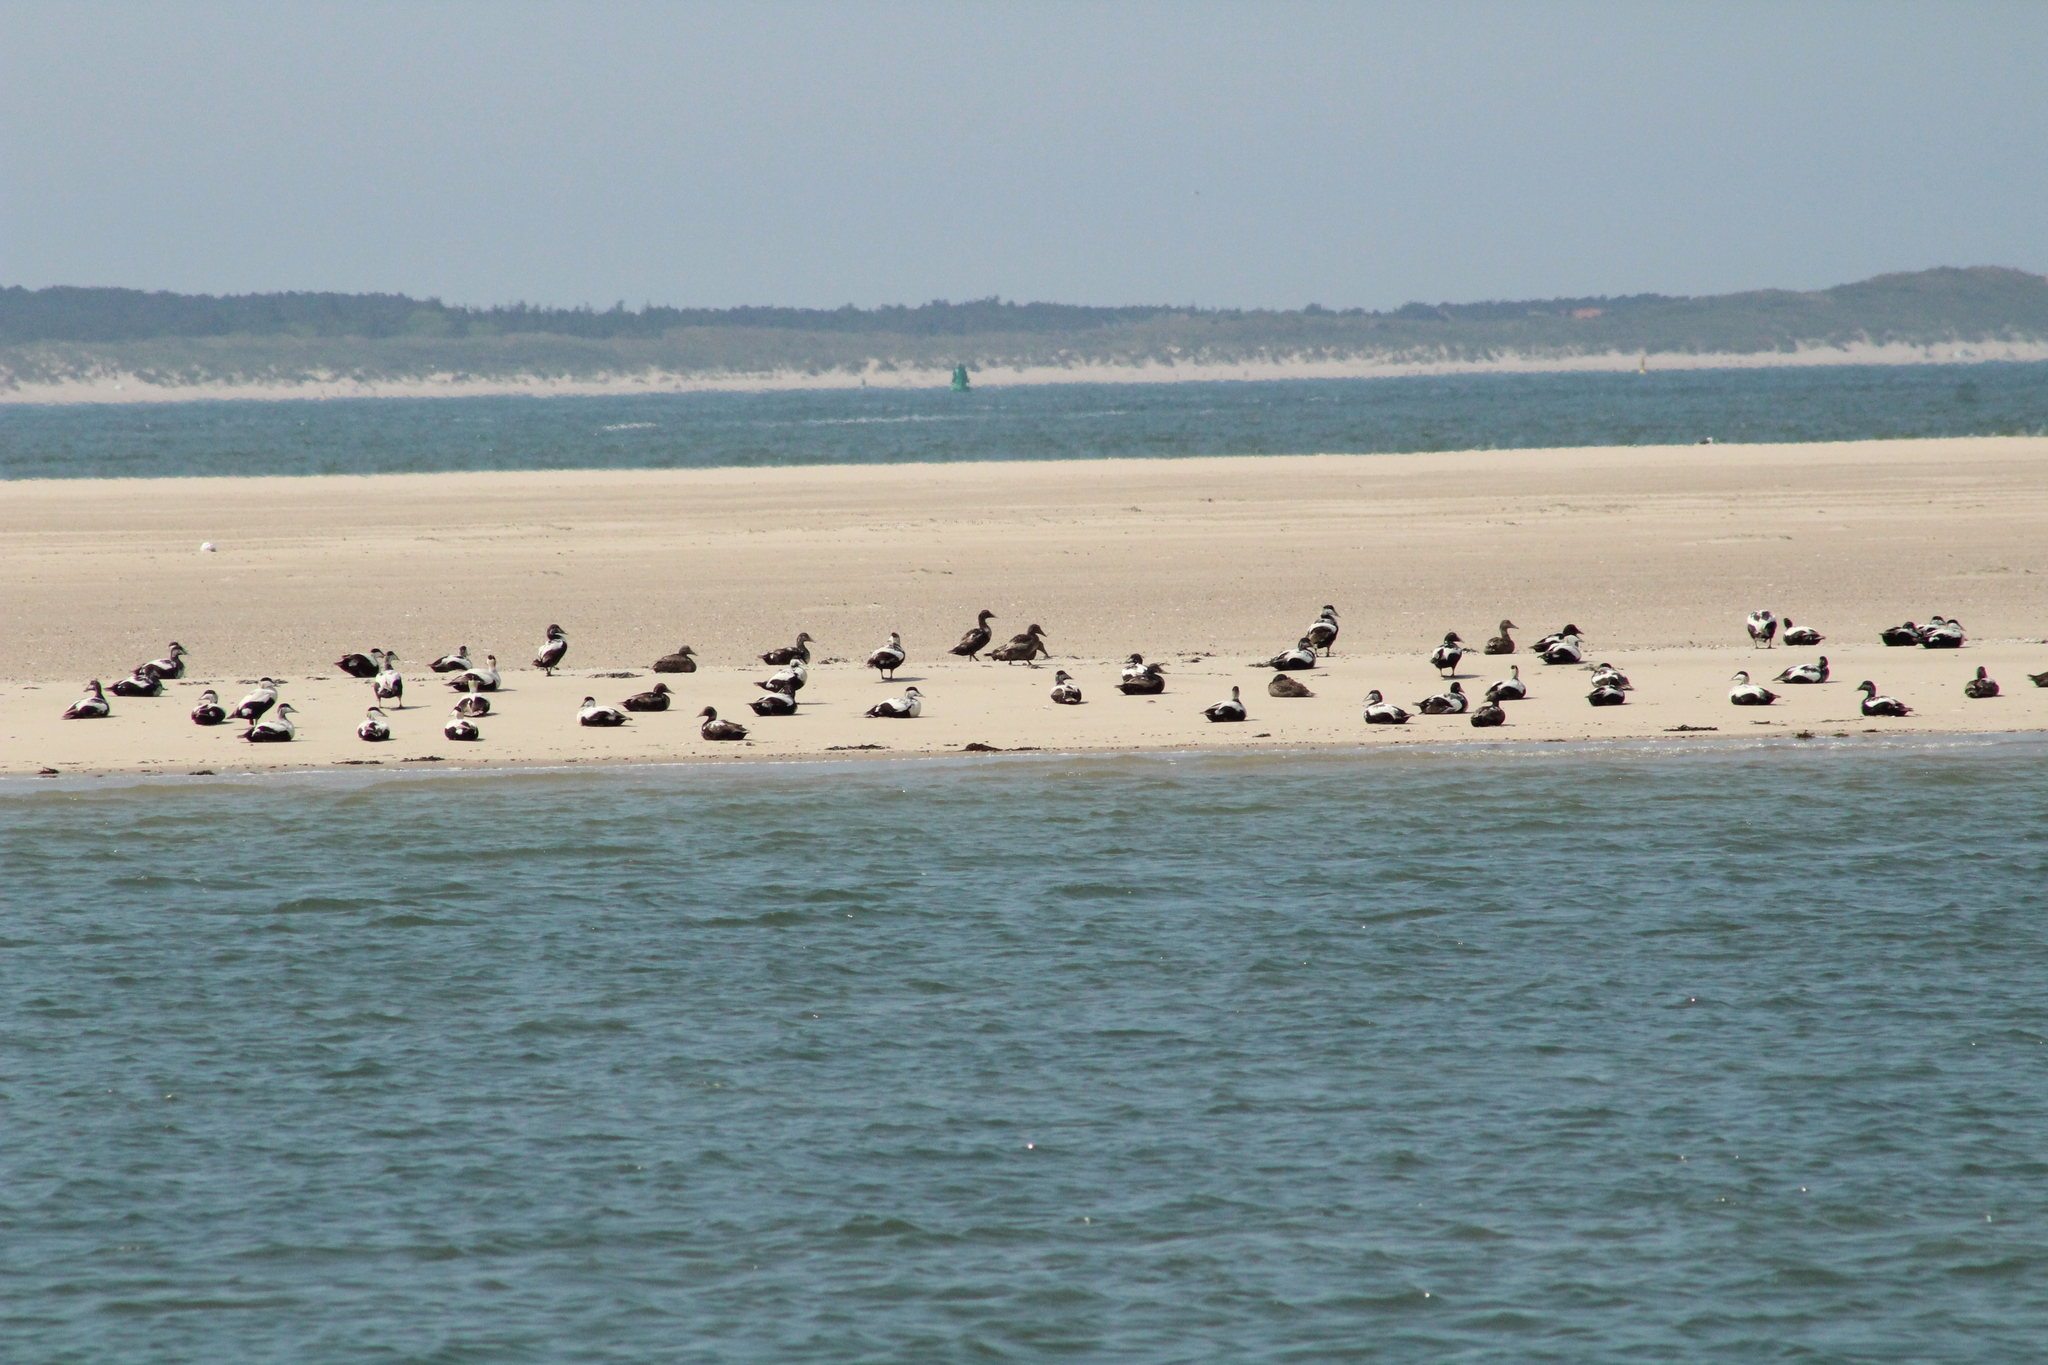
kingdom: Animalia
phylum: Chordata
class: Aves
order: Anseriformes
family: Anatidae
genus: Somateria
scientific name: Somateria mollissima
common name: Common eider
